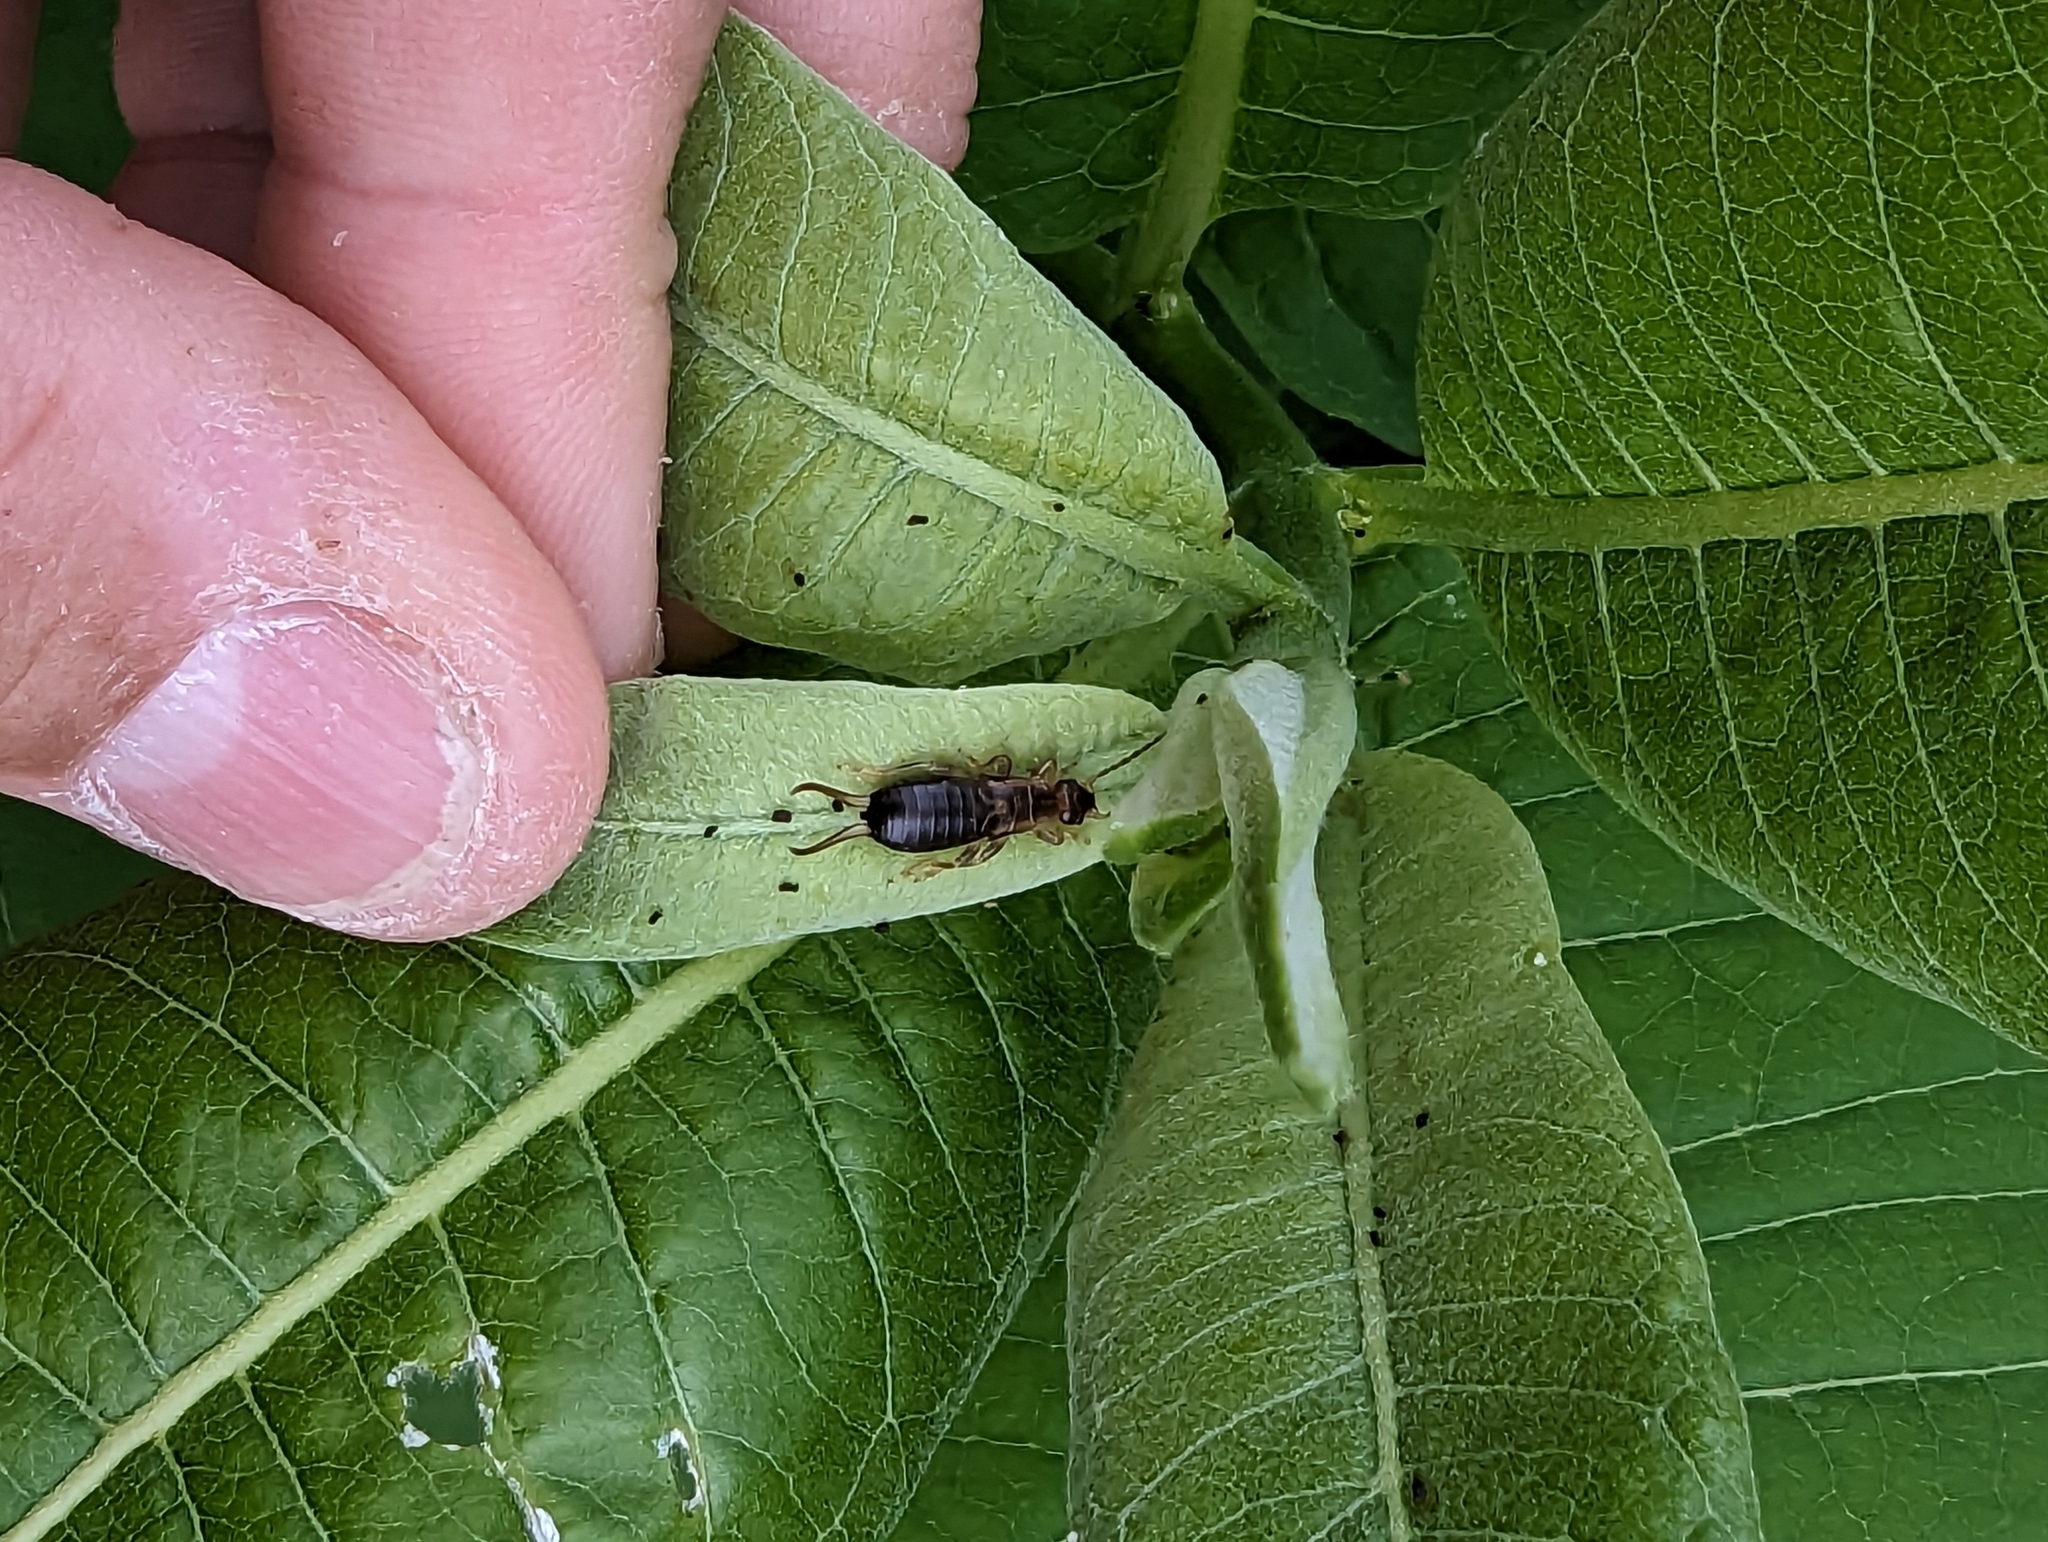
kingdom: Animalia
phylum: Arthropoda
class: Insecta
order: Dermaptera
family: Forficulidae
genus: Forficula
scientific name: Forficula
